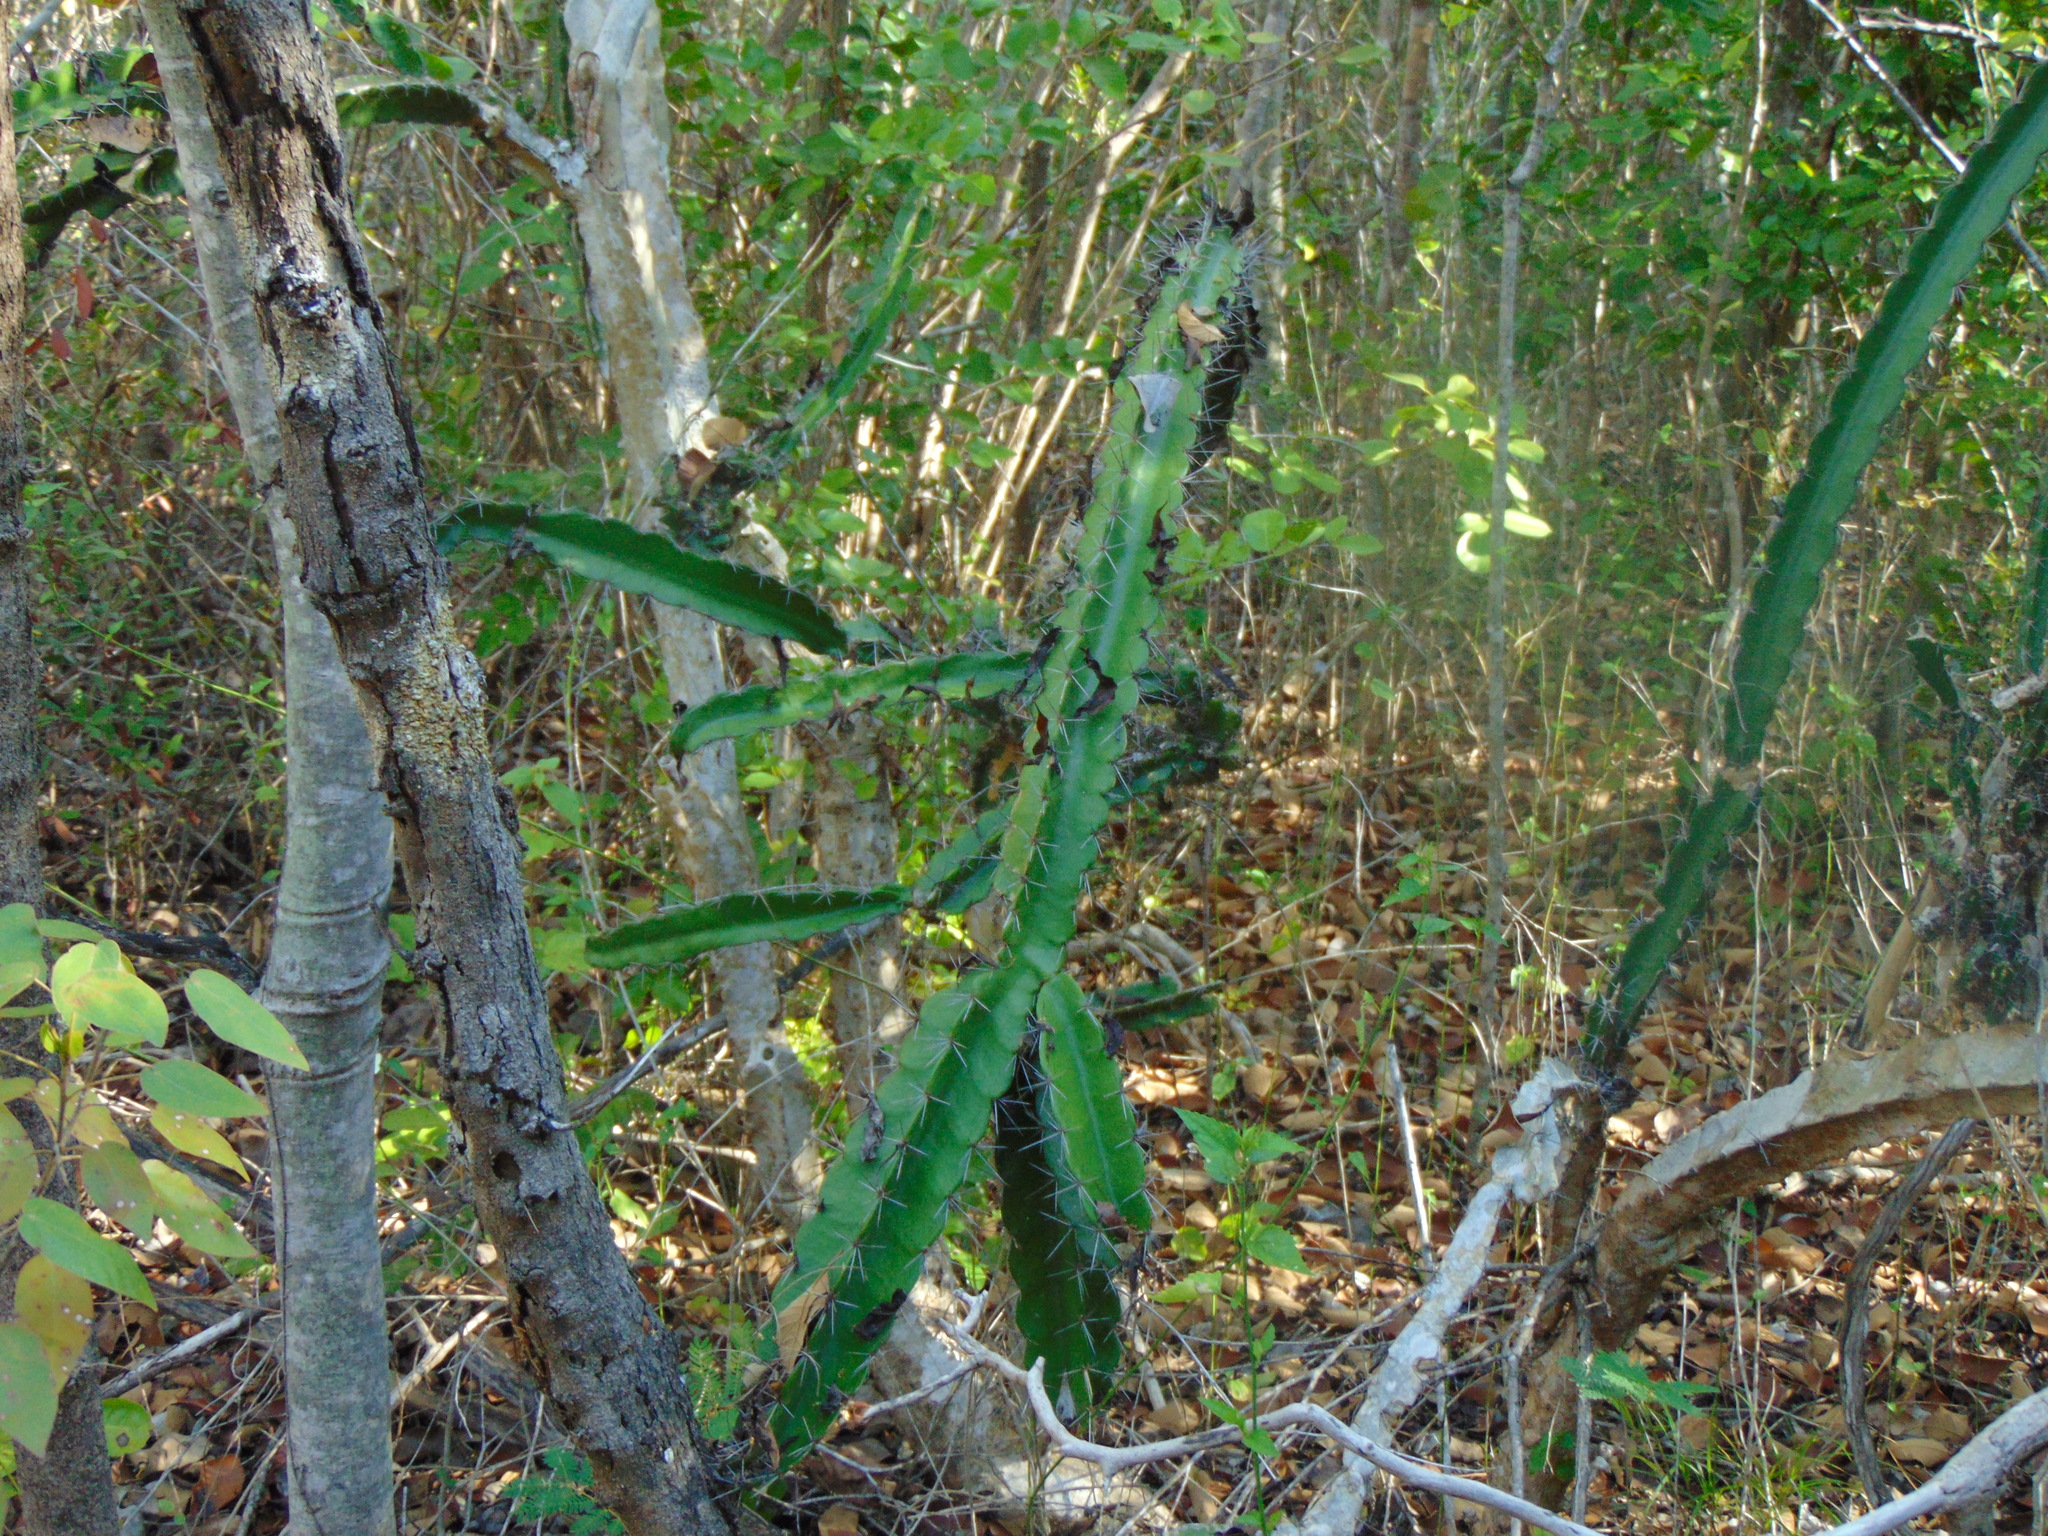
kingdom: Plantae
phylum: Tracheophyta
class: Magnoliopsida
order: Caryophyllales
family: Cactaceae
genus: Leptocereus
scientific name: Leptocereus quadricostatus
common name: Sebucan
